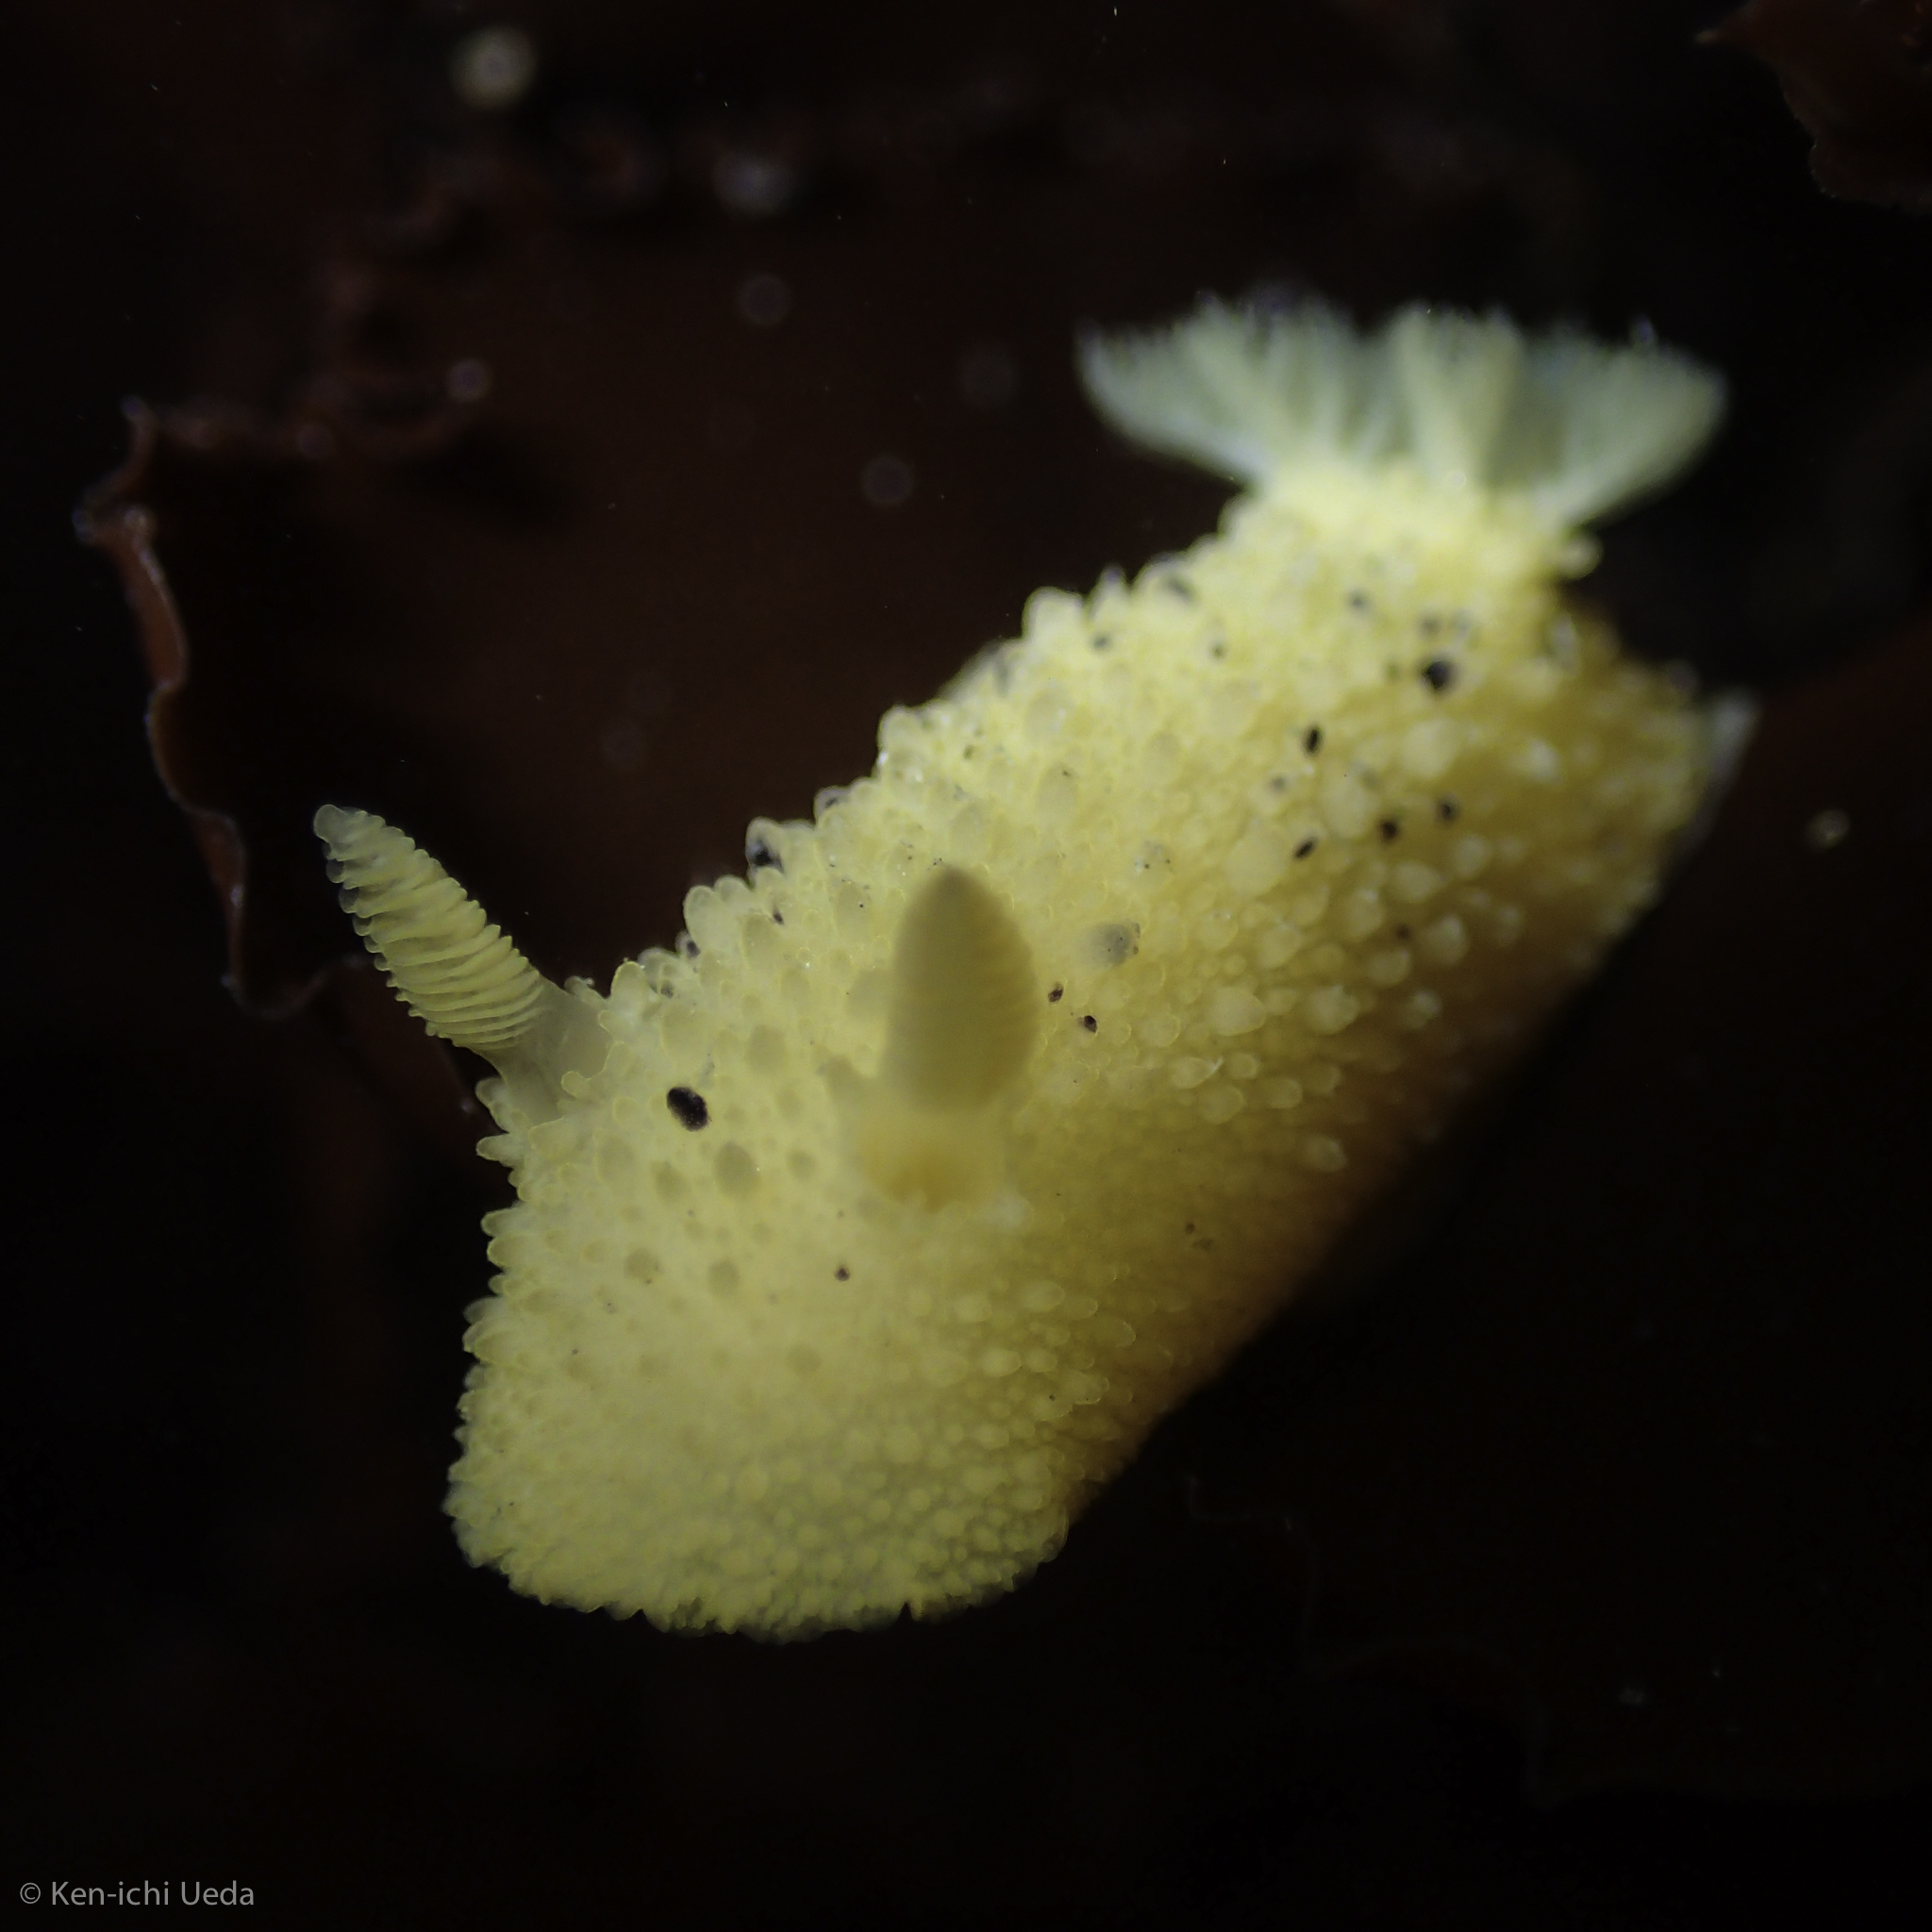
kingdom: Animalia
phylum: Mollusca
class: Gastropoda
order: Nudibranchia
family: Dorididae
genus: Doris
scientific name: Doris montereyensis
